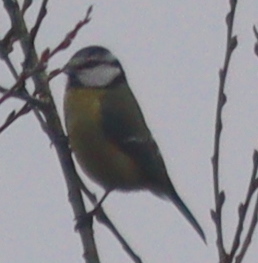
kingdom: Animalia
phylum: Chordata
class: Aves
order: Passeriformes
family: Paridae
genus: Cyanistes
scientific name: Cyanistes caeruleus
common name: Eurasian blue tit
